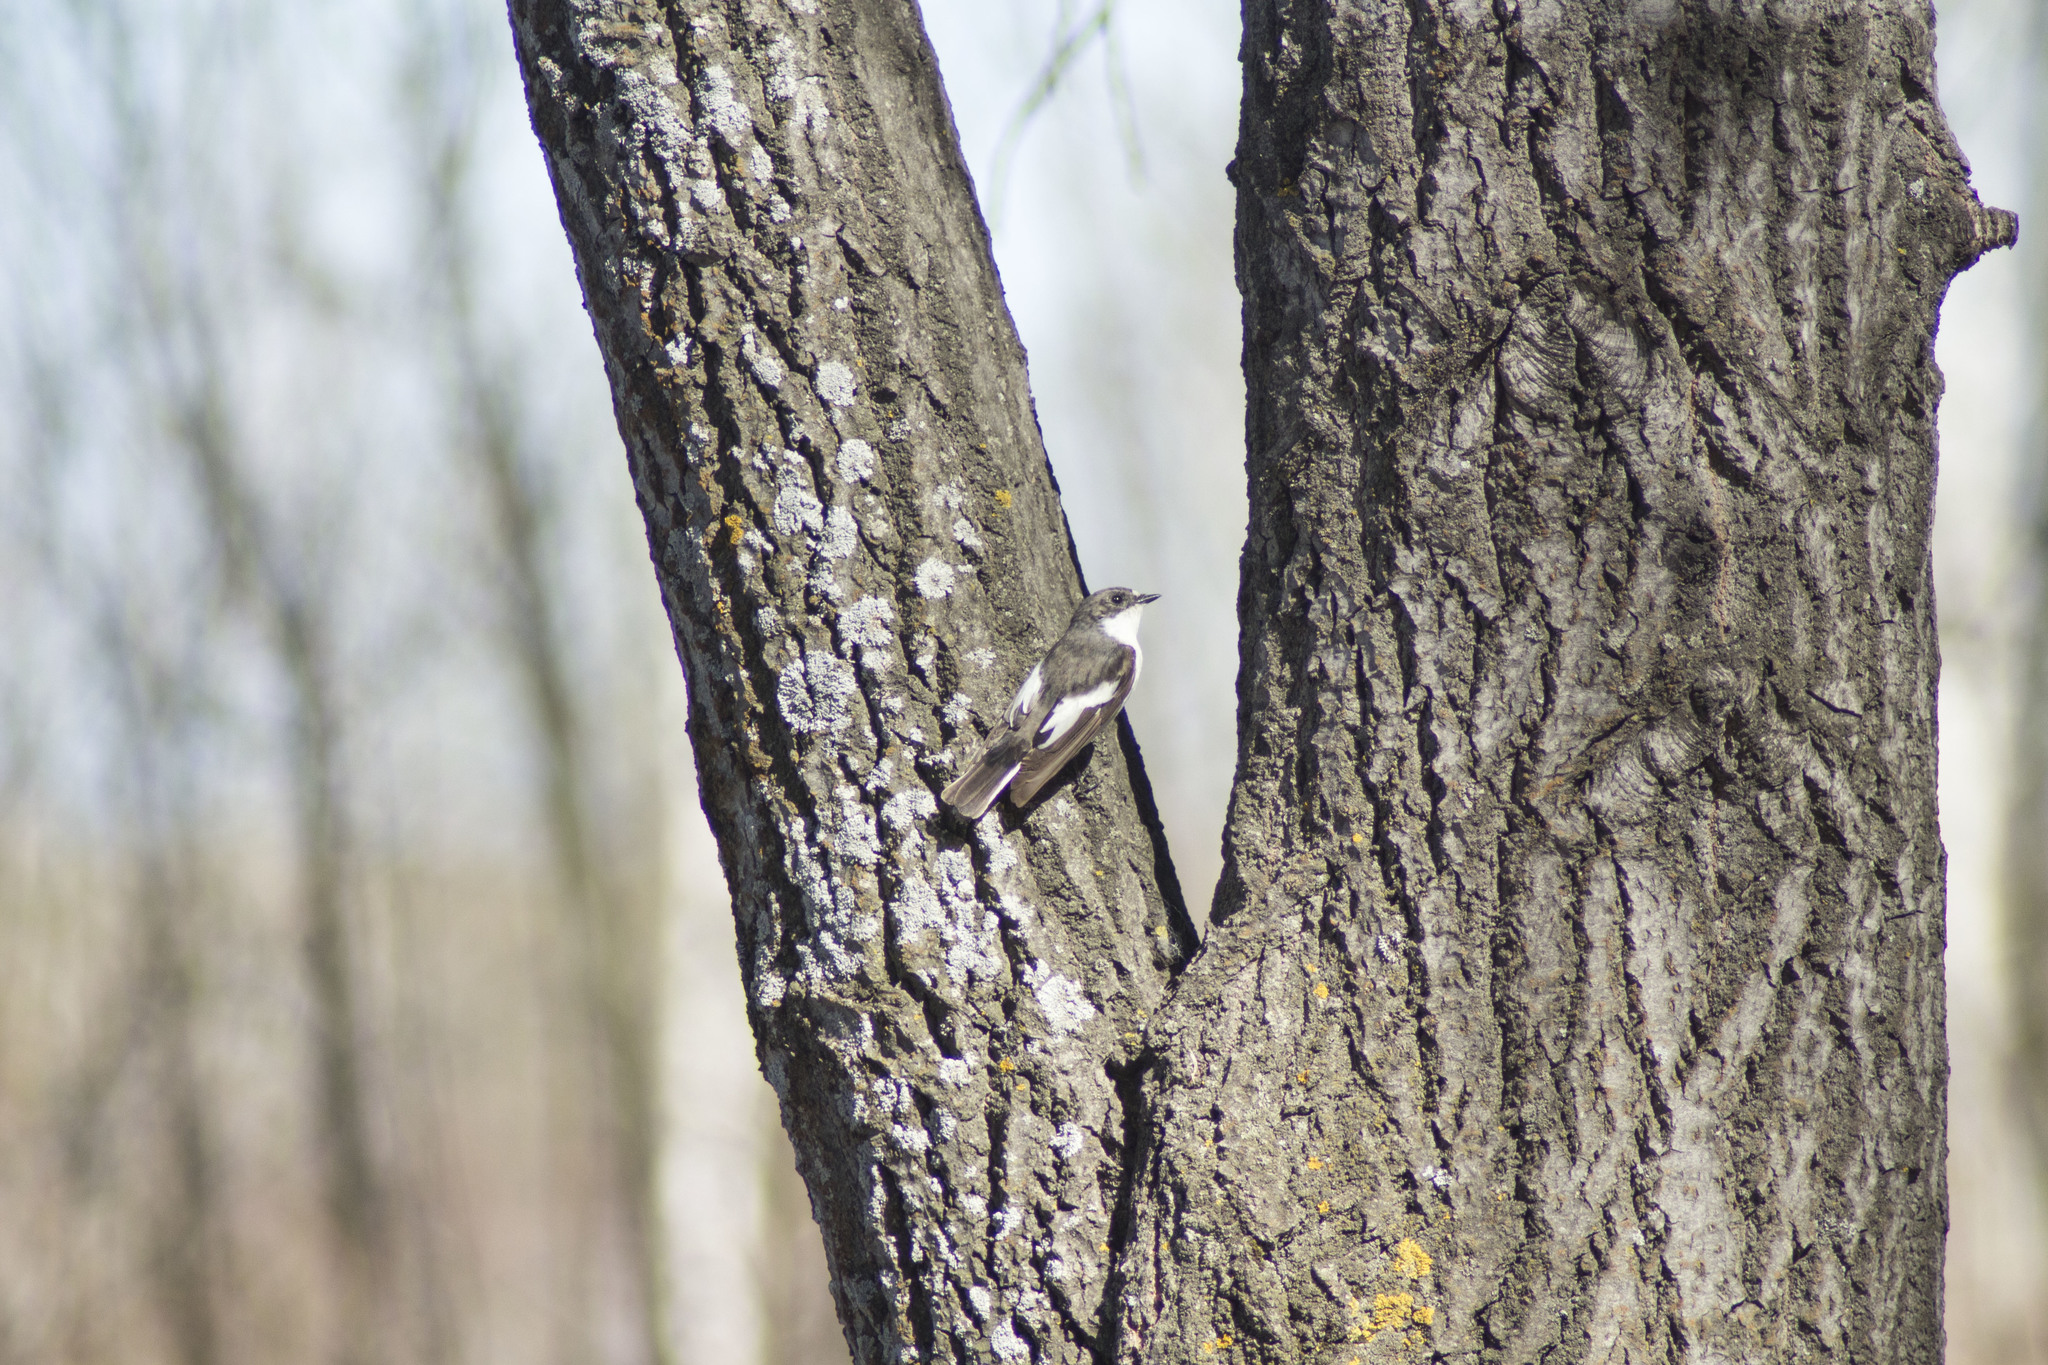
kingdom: Animalia
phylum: Chordata
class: Aves
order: Passeriformes
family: Muscicapidae
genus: Ficedula
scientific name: Ficedula hypoleuca
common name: European pied flycatcher
